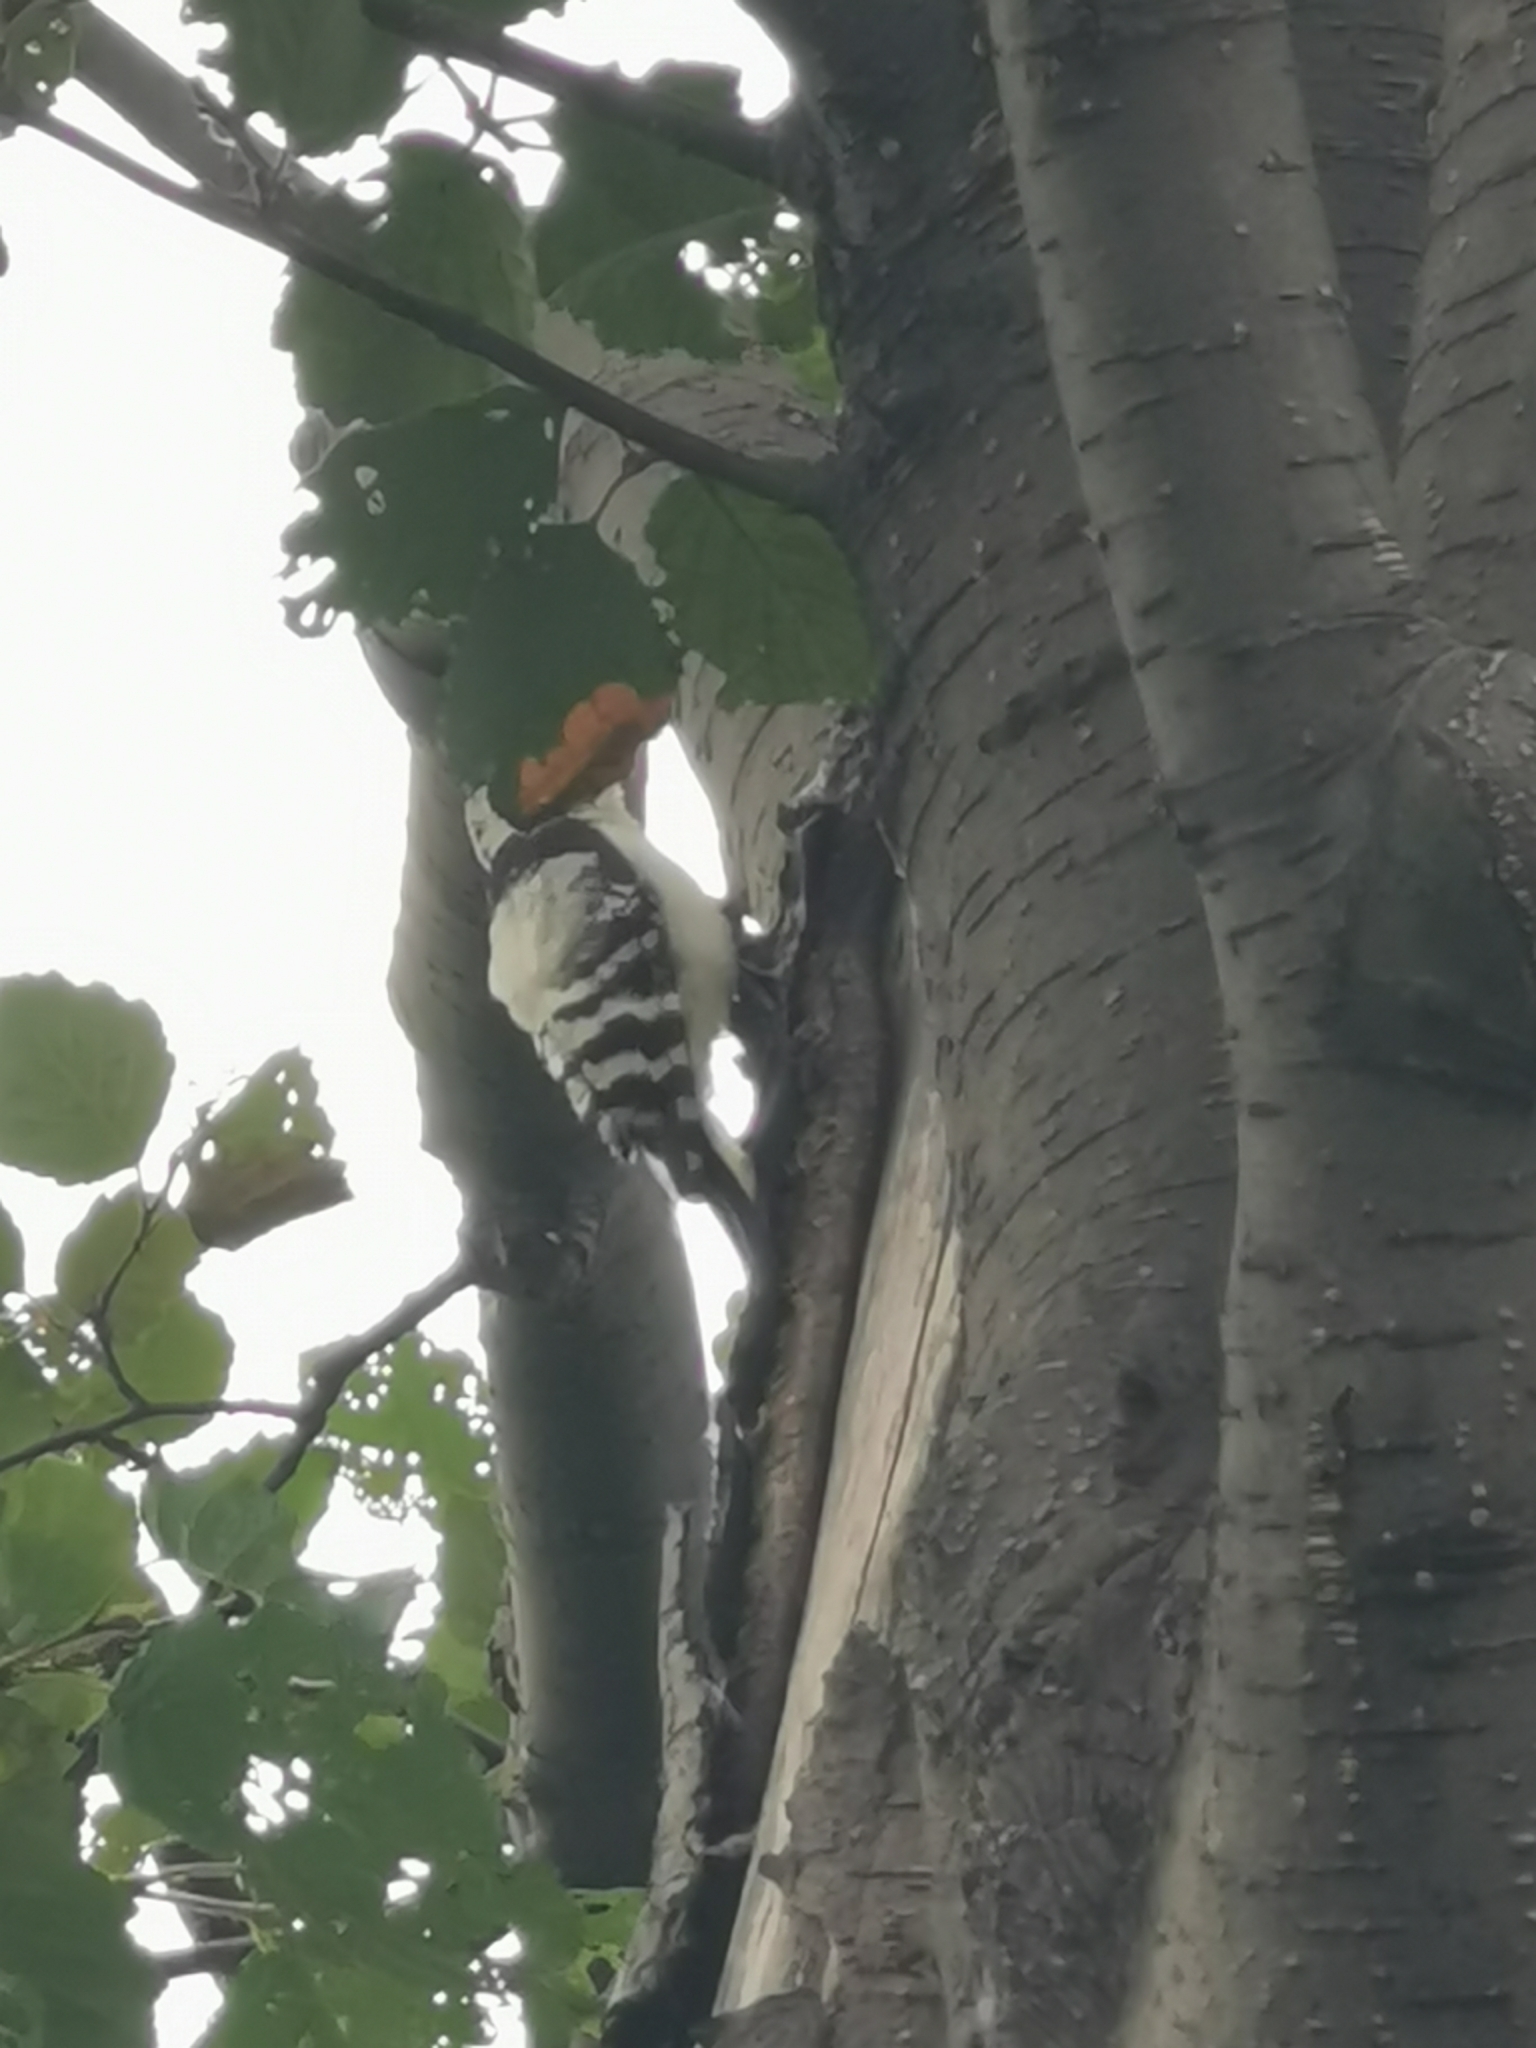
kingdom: Animalia
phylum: Chordata
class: Aves
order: Piciformes
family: Picidae
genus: Dryobates
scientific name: Dryobates minor
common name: Lesser spotted woodpecker
